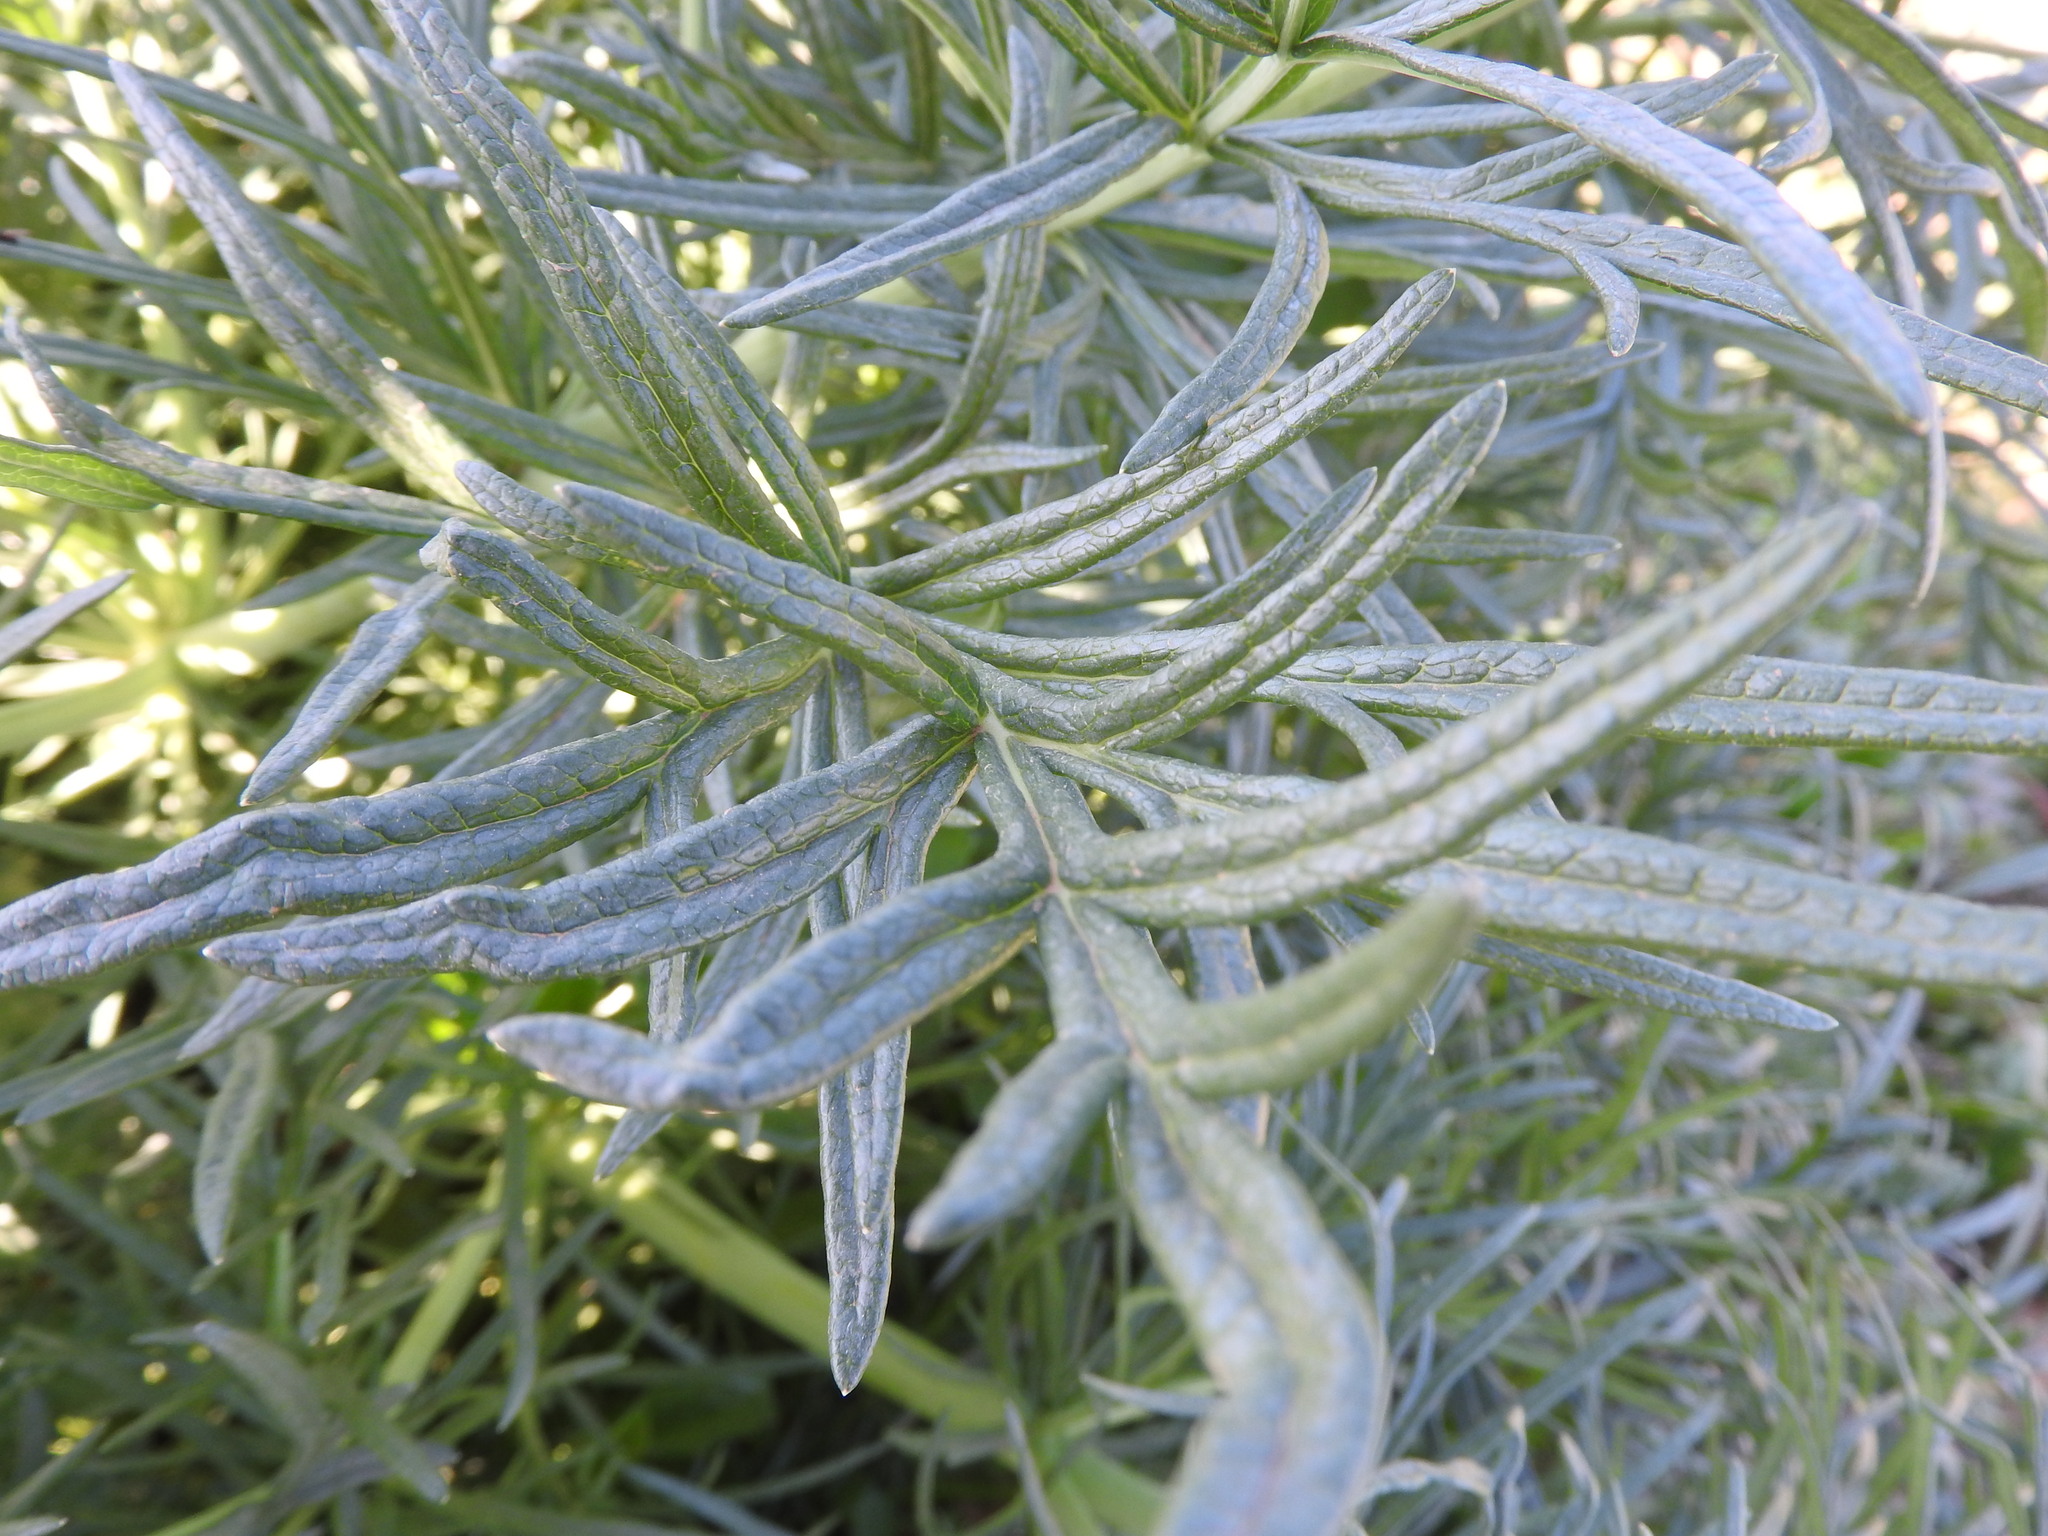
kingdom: Plantae
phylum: Tracheophyta
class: Magnoliopsida
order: Apiales
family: Apiaceae
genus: Thapsia
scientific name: Thapsia garganica
